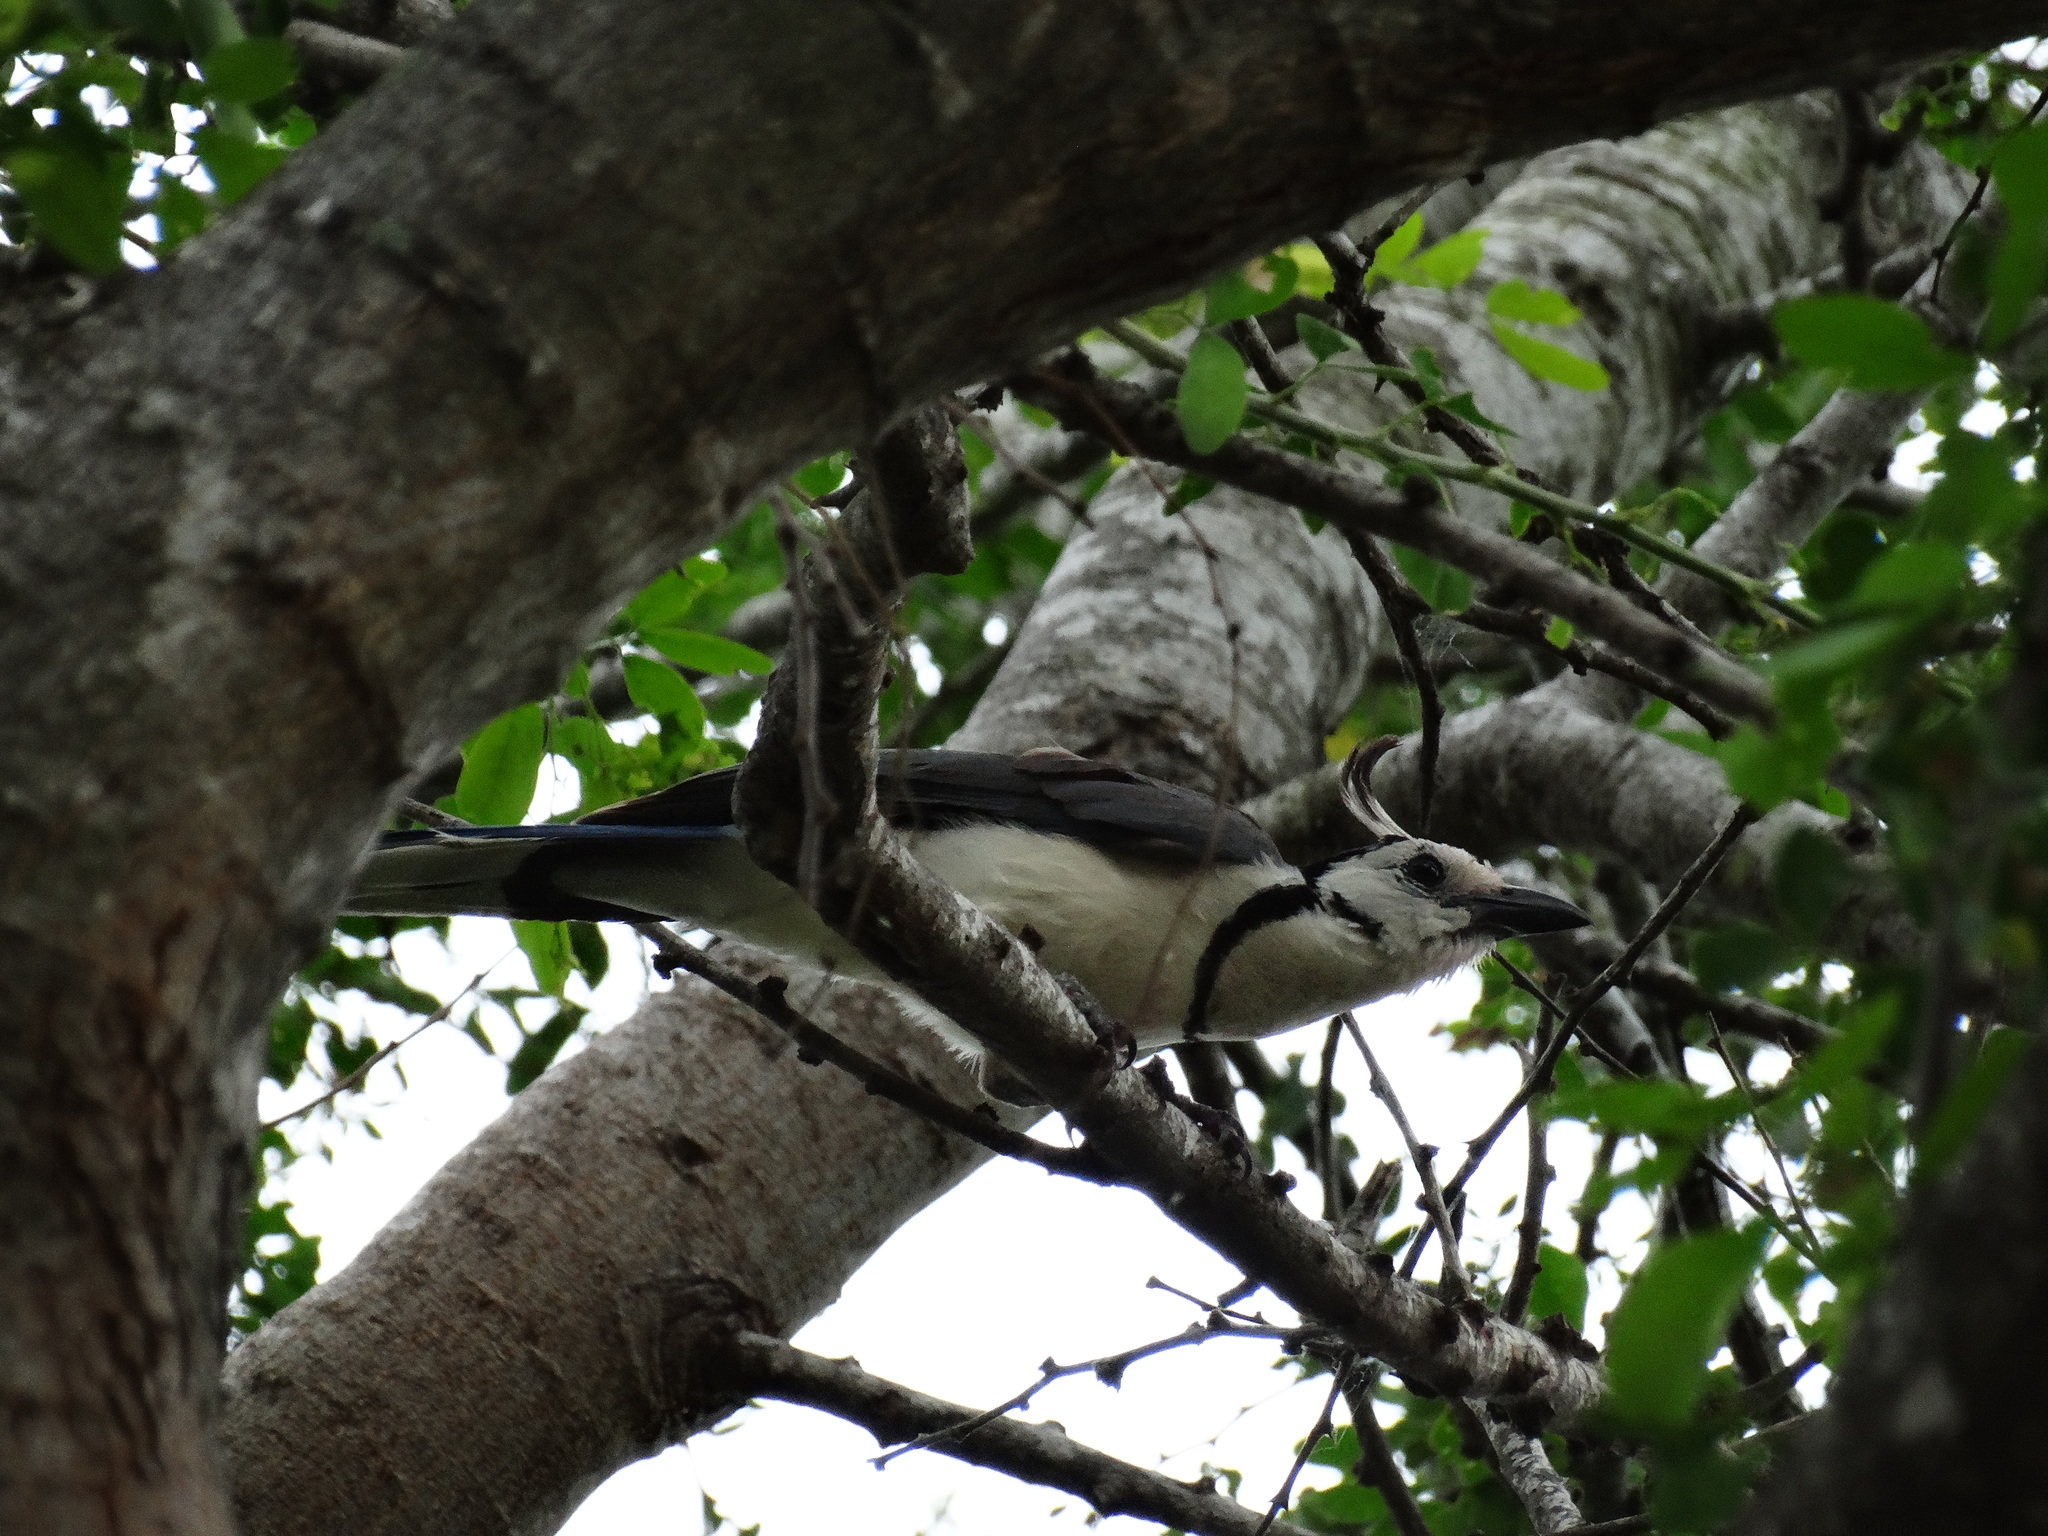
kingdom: Animalia
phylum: Chordata
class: Aves
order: Passeriformes
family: Corvidae
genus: Calocitta
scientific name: Calocitta formosa
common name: White-throated magpie-jay
